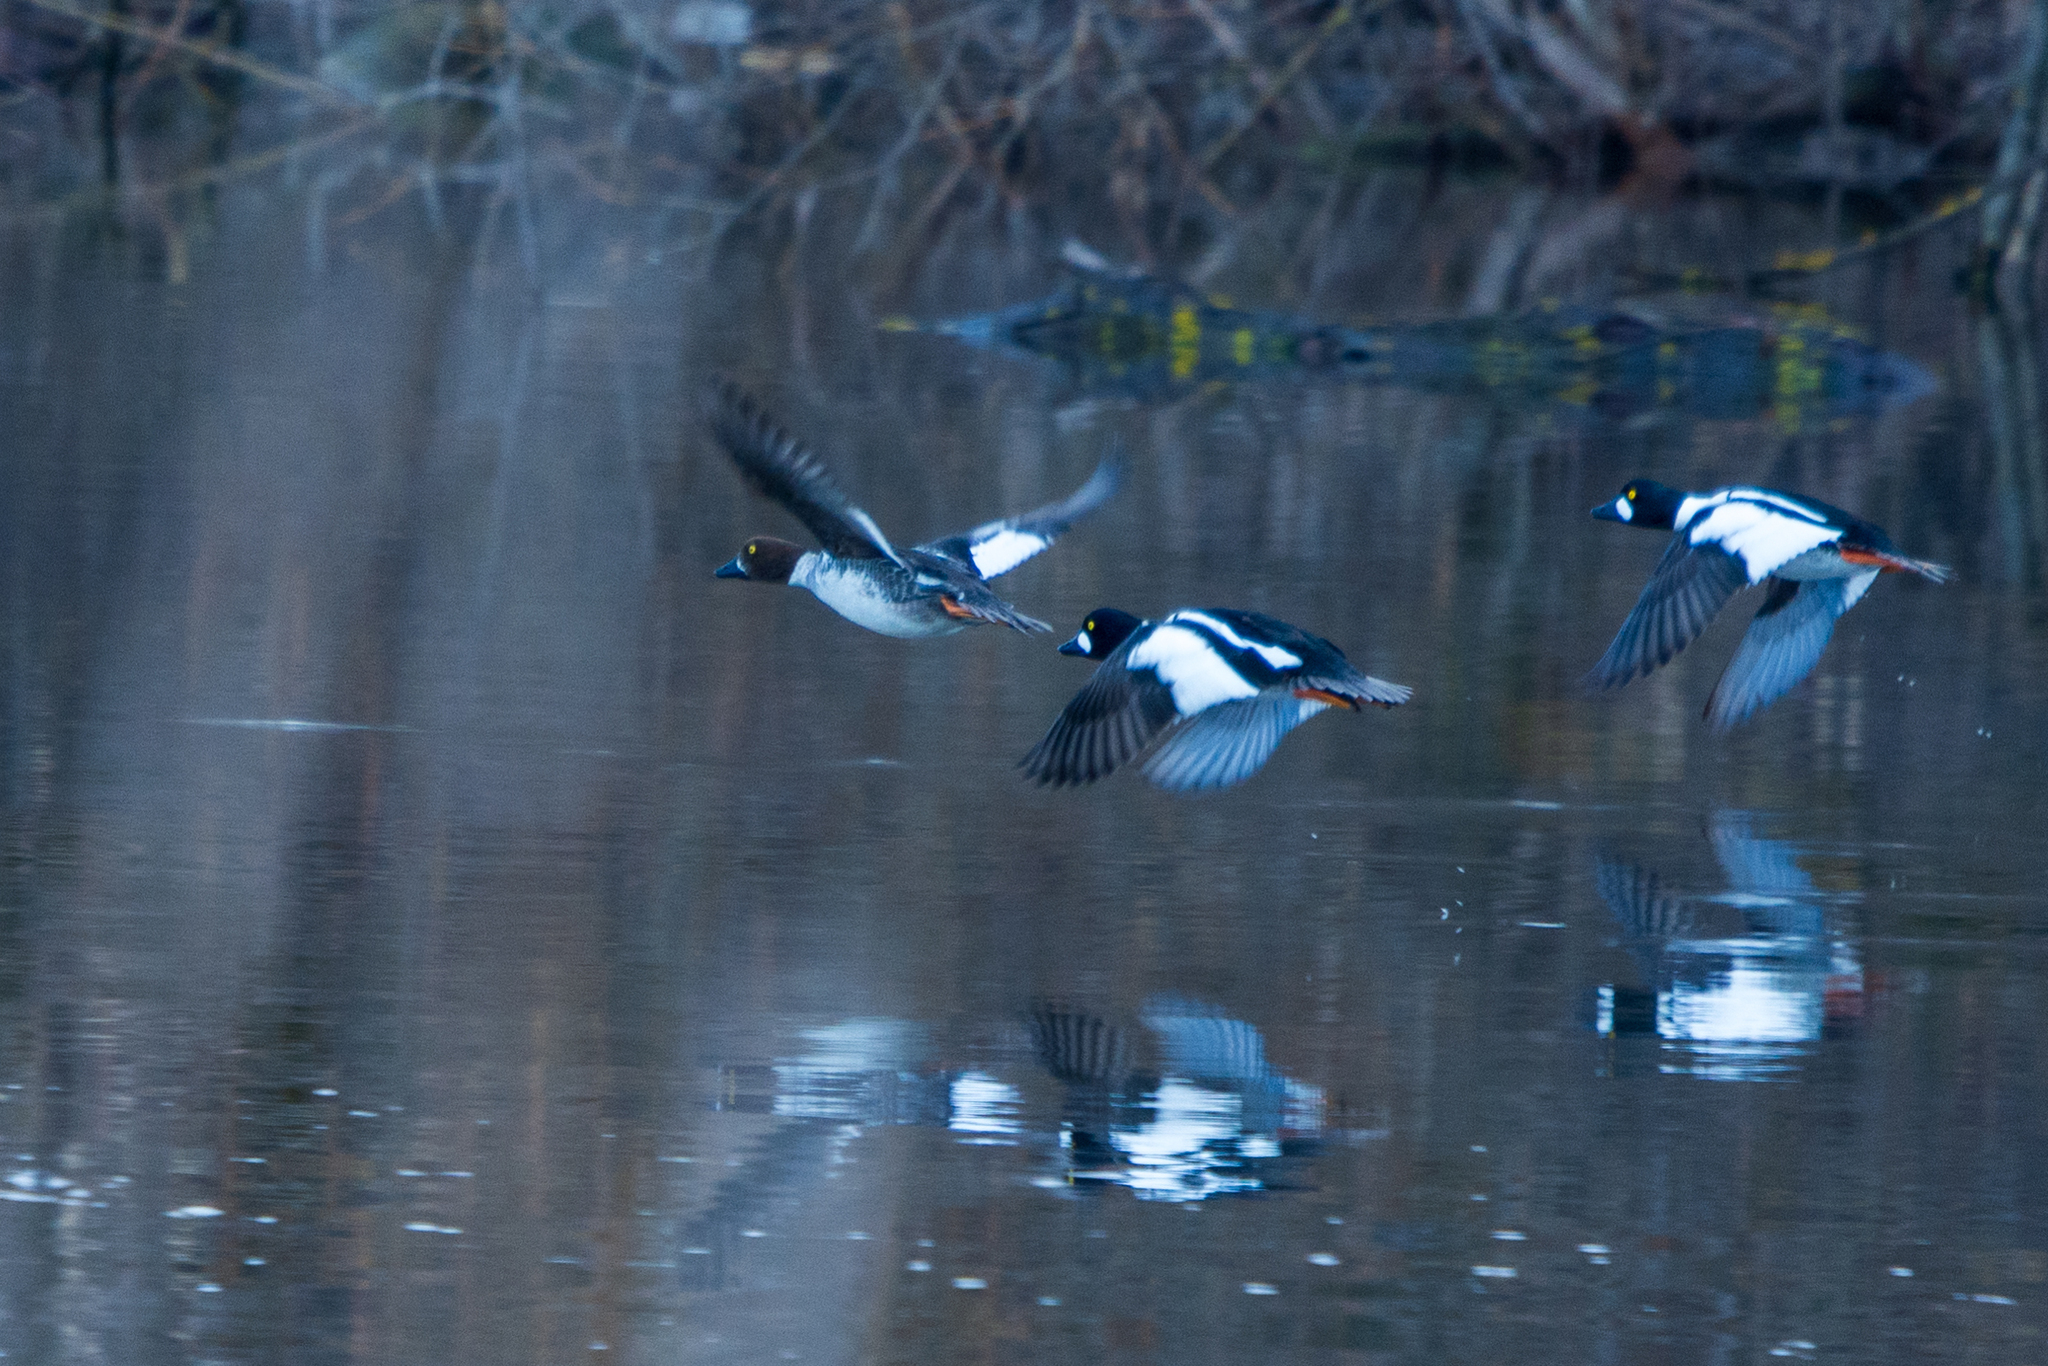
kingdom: Animalia
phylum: Chordata
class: Aves
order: Anseriformes
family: Anatidae
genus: Bucephala
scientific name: Bucephala clangula
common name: Common goldeneye
